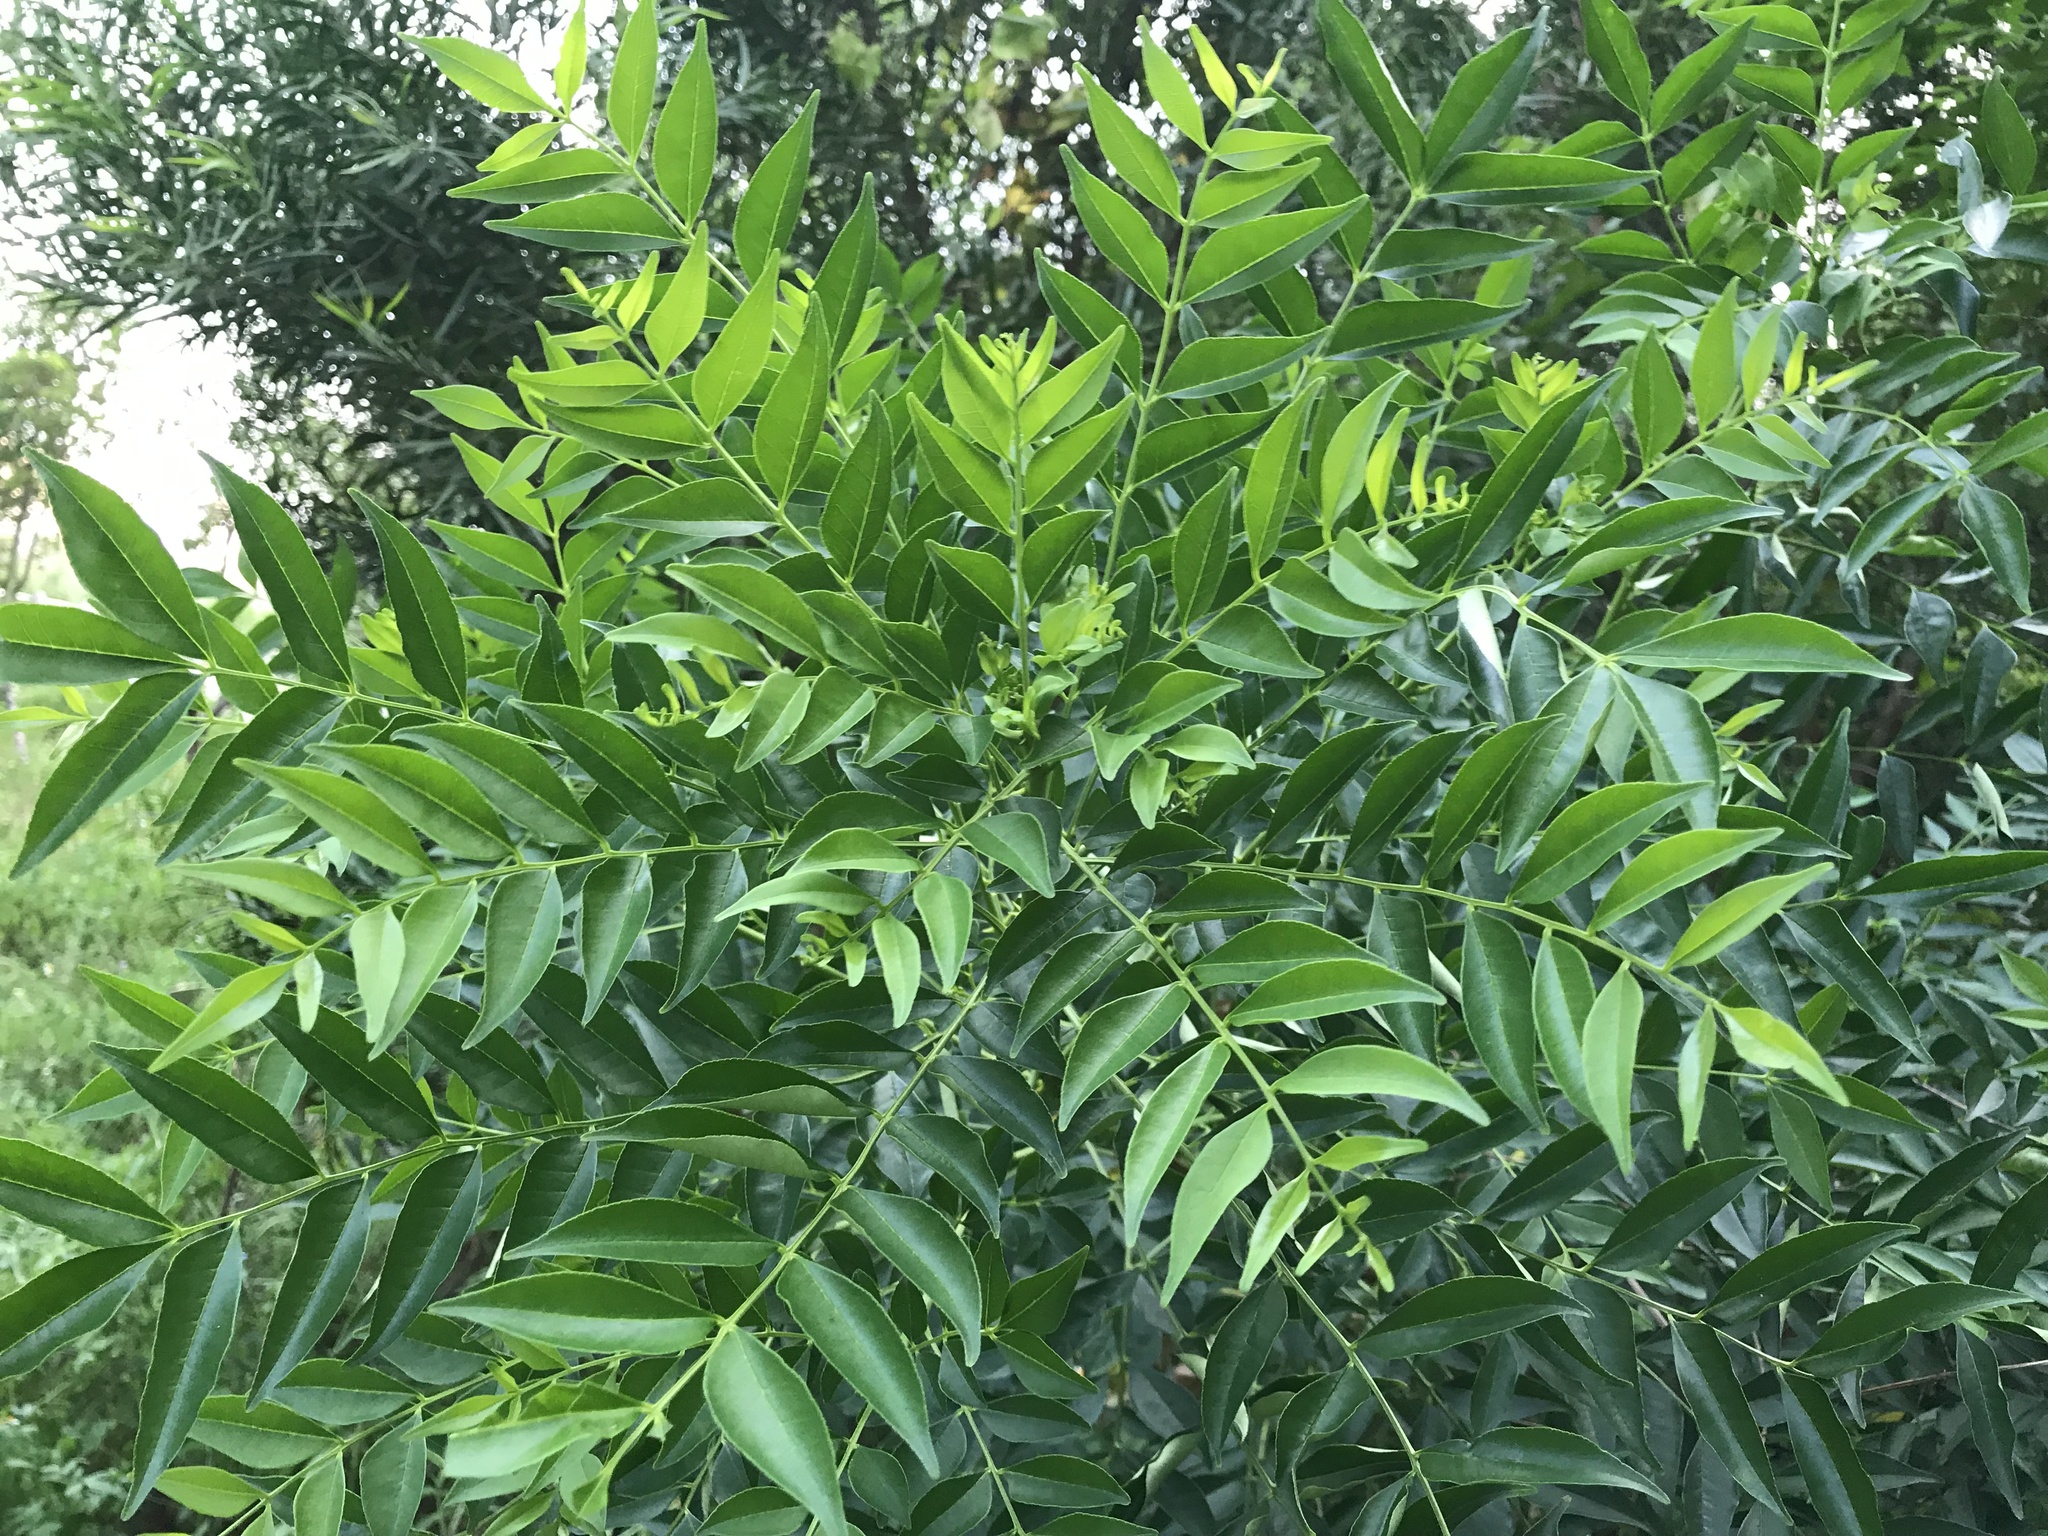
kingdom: Plantae
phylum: Tracheophyta
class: Magnoliopsida
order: Sapindales
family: Rutaceae
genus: Zanthoxylum
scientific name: Zanthoxylum avicennae
